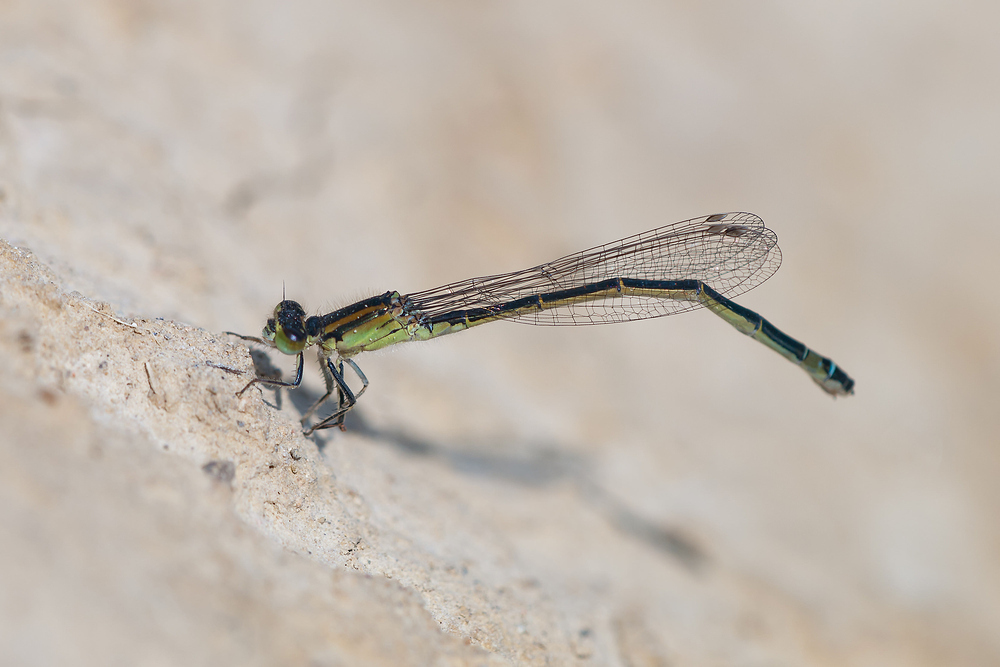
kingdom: Animalia
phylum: Arthropoda
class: Insecta
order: Odonata
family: Coenagrionidae
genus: Ischnura
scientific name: Ischnura graellsii
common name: Iberian bluetail
